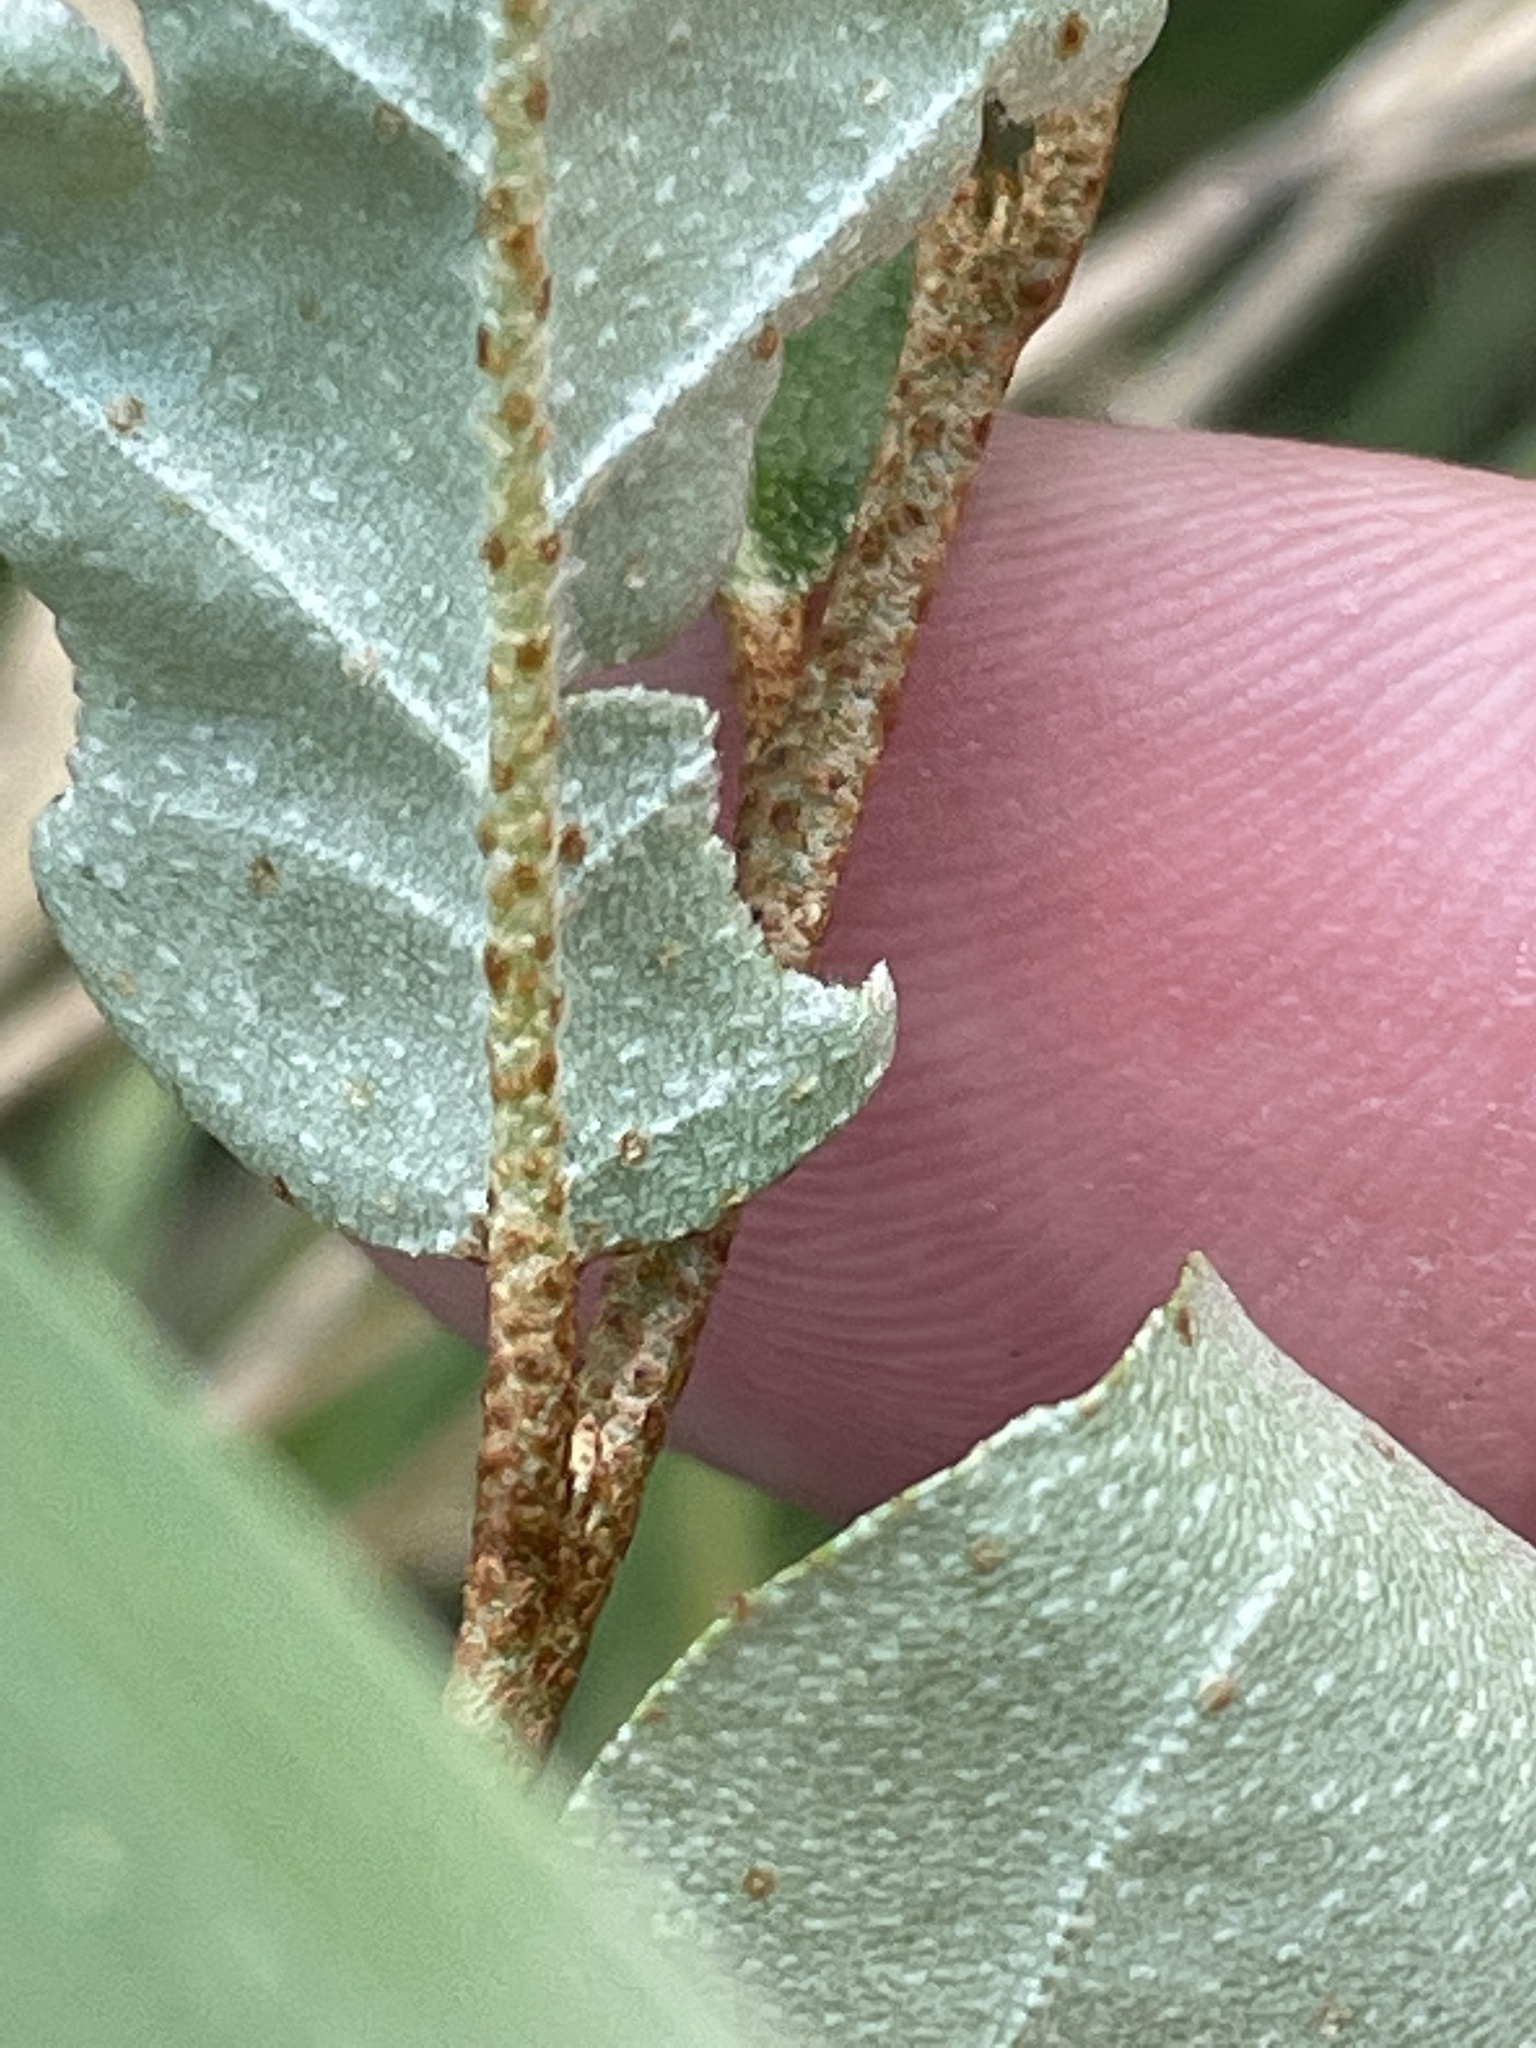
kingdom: Plantae
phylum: Tracheophyta
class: Magnoliopsida
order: Rosales
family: Elaeagnaceae
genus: Elaeagnus
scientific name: Elaeagnus umbellata
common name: Autumn olive
